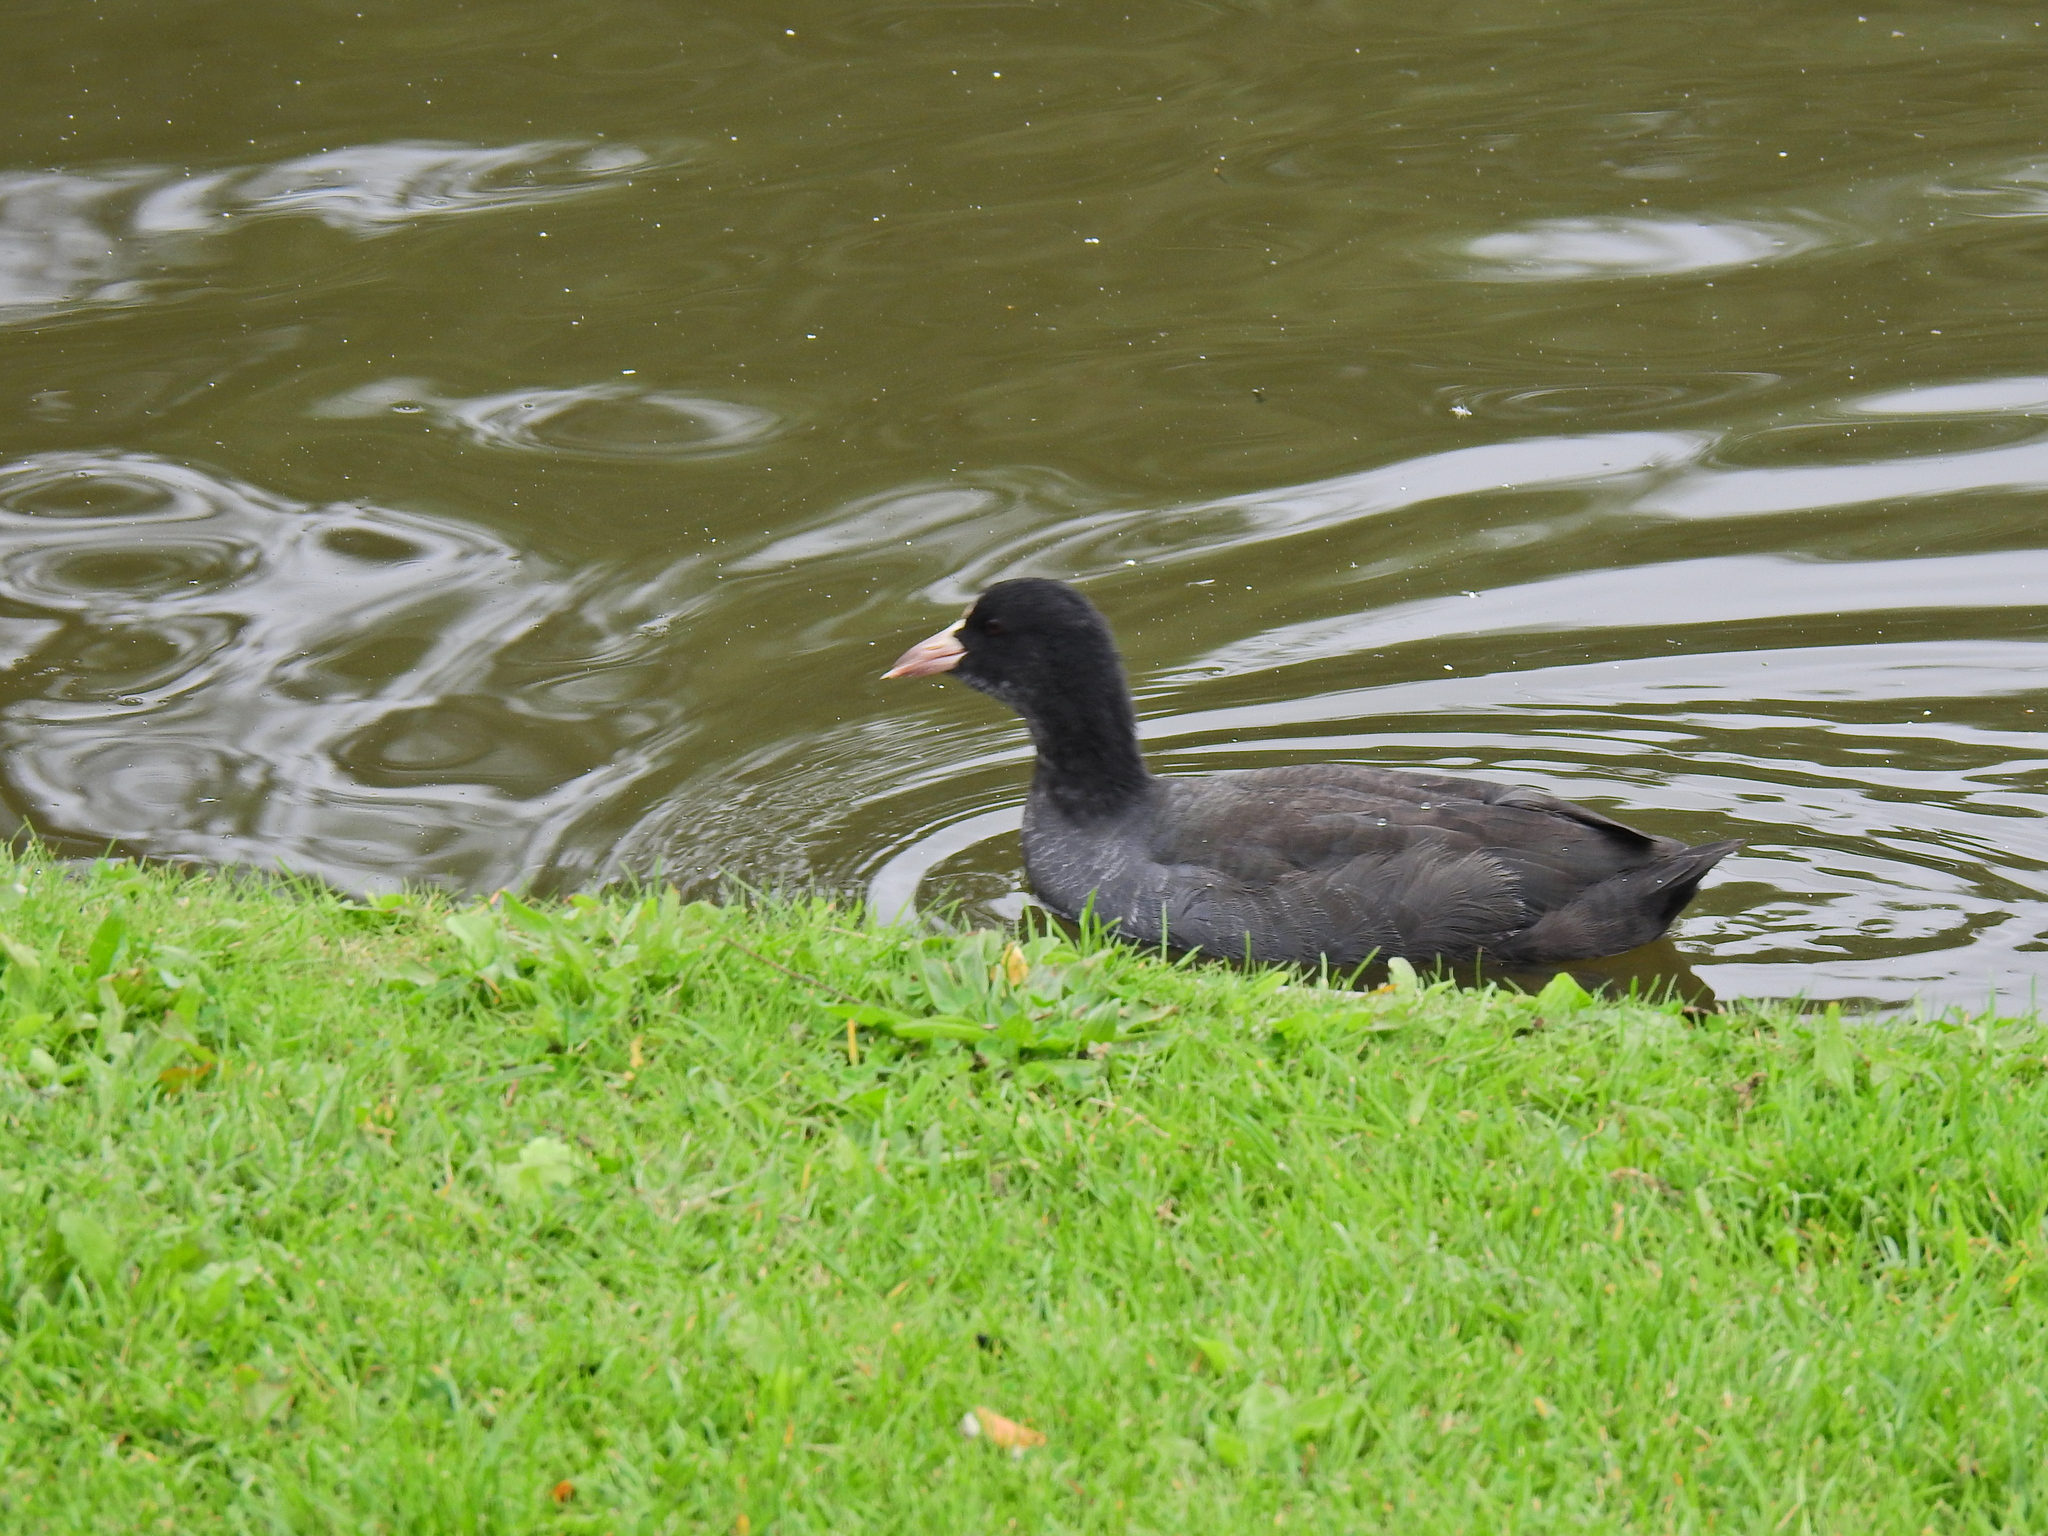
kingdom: Animalia
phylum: Chordata
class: Aves
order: Gruiformes
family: Rallidae
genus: Fulica
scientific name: Fulica atra
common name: Eurasian coot
